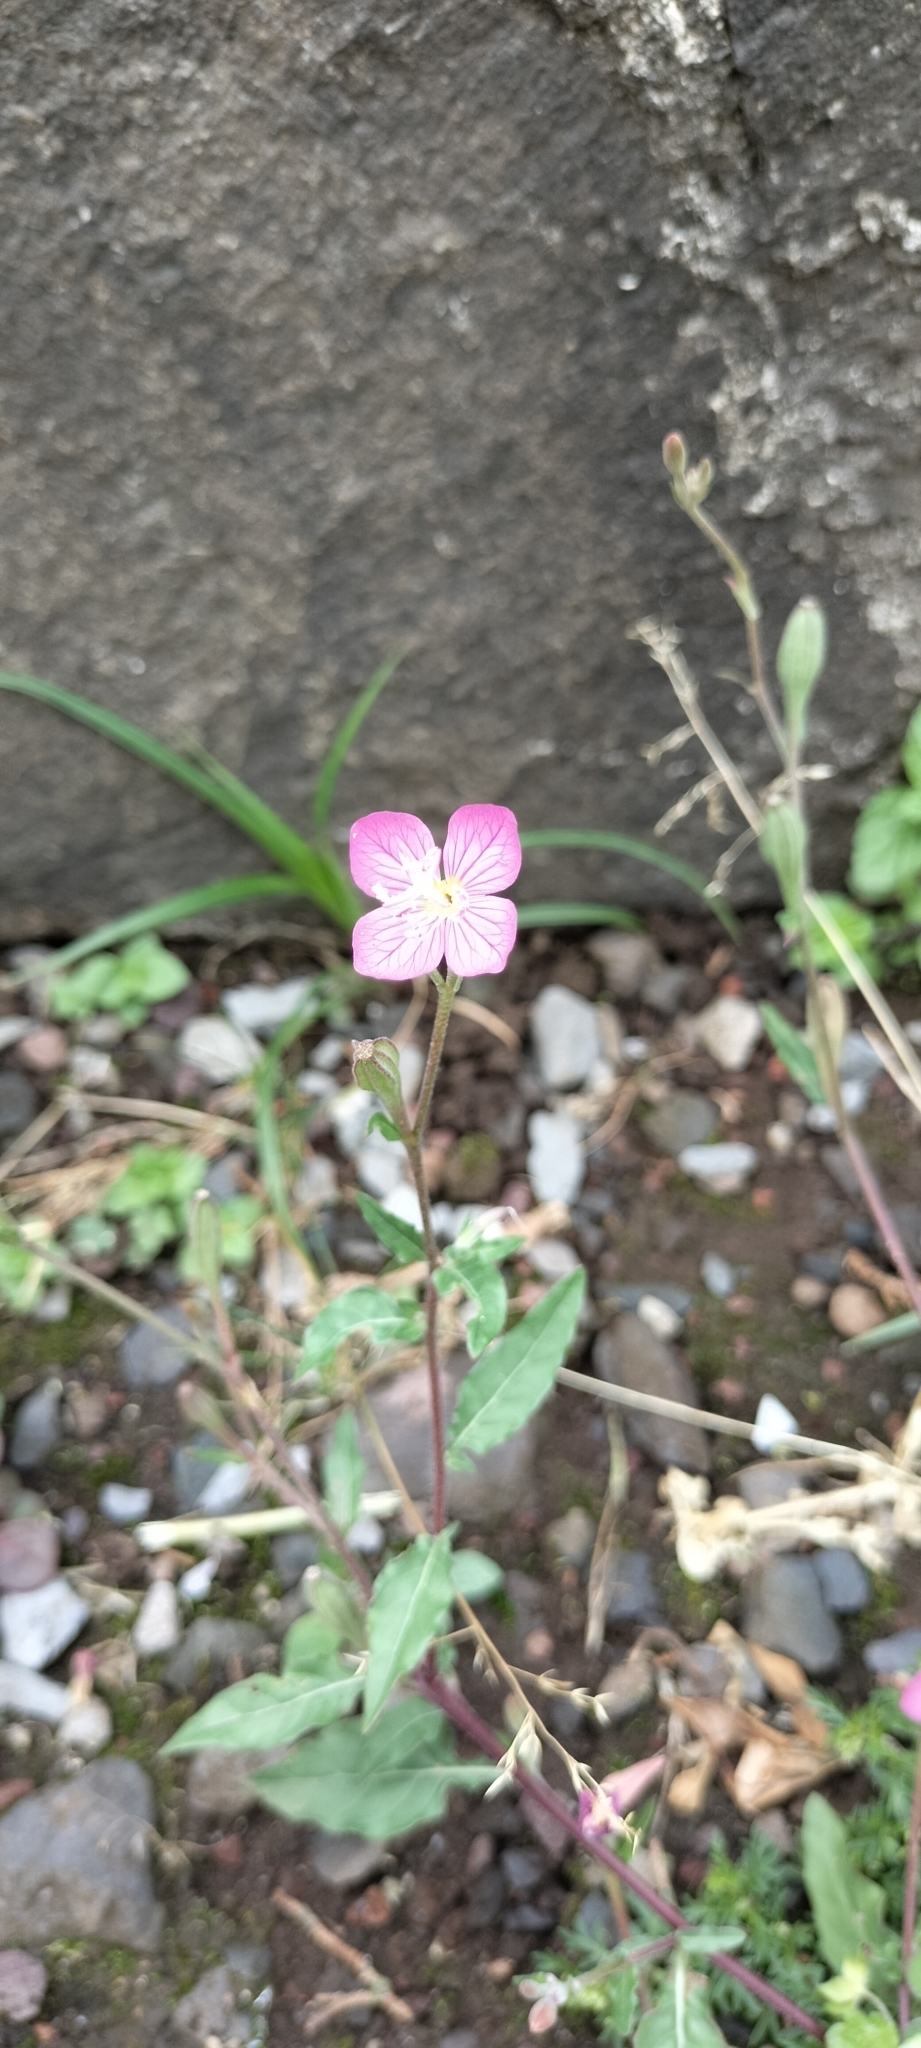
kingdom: Plantae
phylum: Tracheophyta
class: Magnoliopsida
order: Myrtales
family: Onagraceae
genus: Oenothera
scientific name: Oenothera rosea
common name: Rosy evening-primrose
